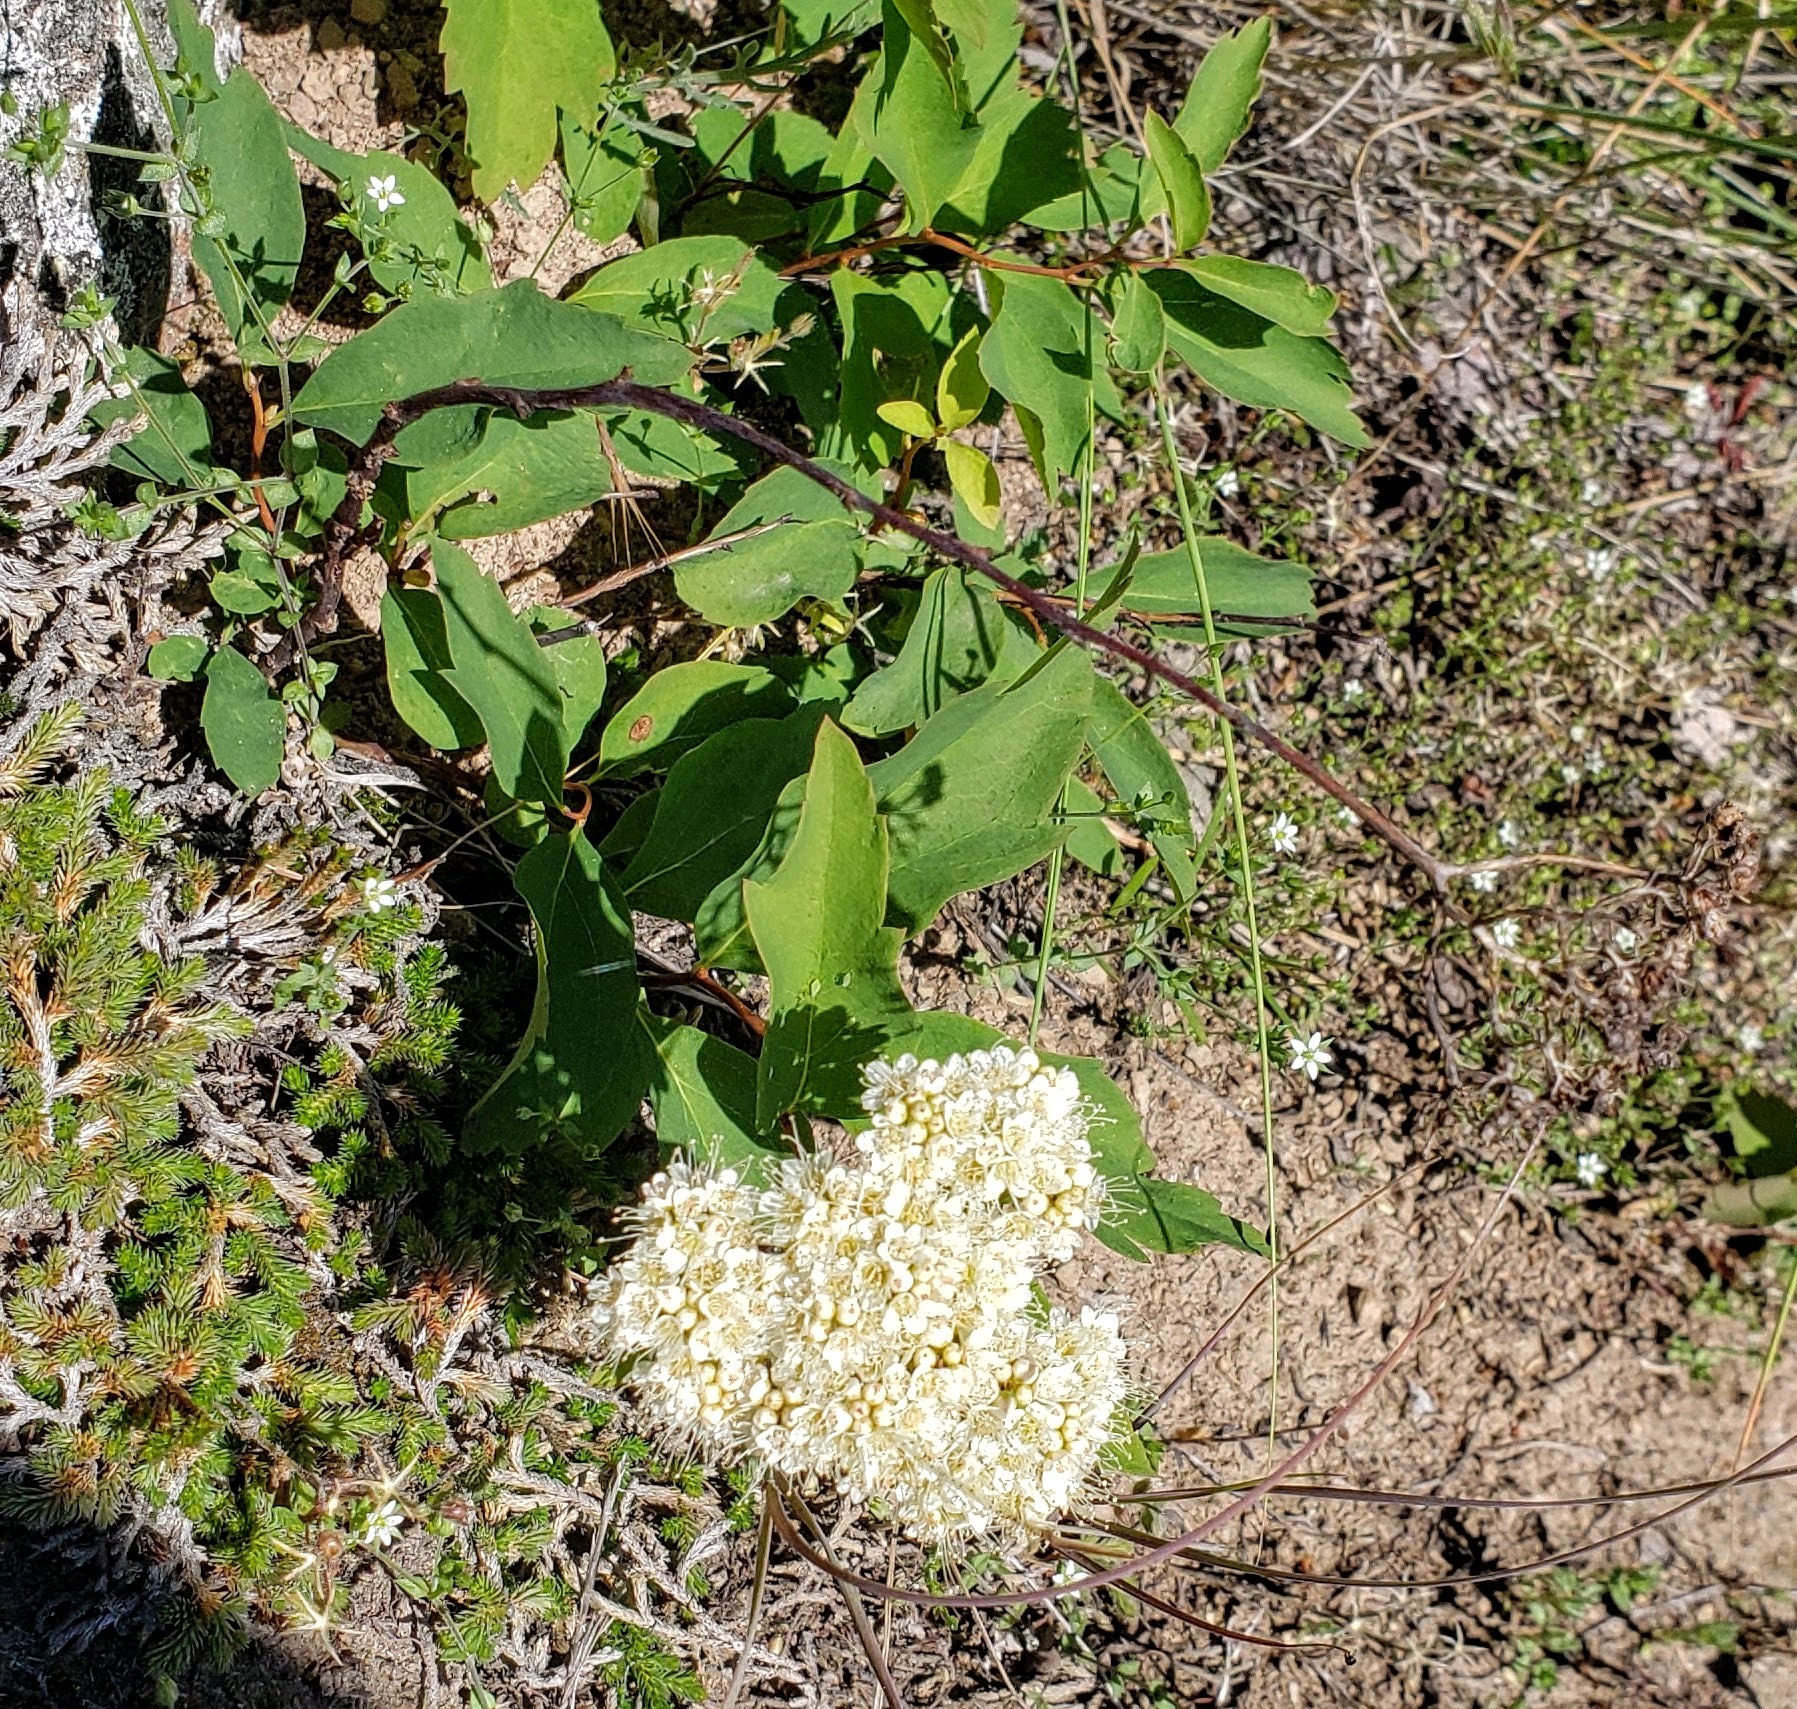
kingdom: Plantae
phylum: Tracheophyta
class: Magnoliopsida
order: Rosales
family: Rosaceae
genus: Spiraea
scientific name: Spiraea lucida
